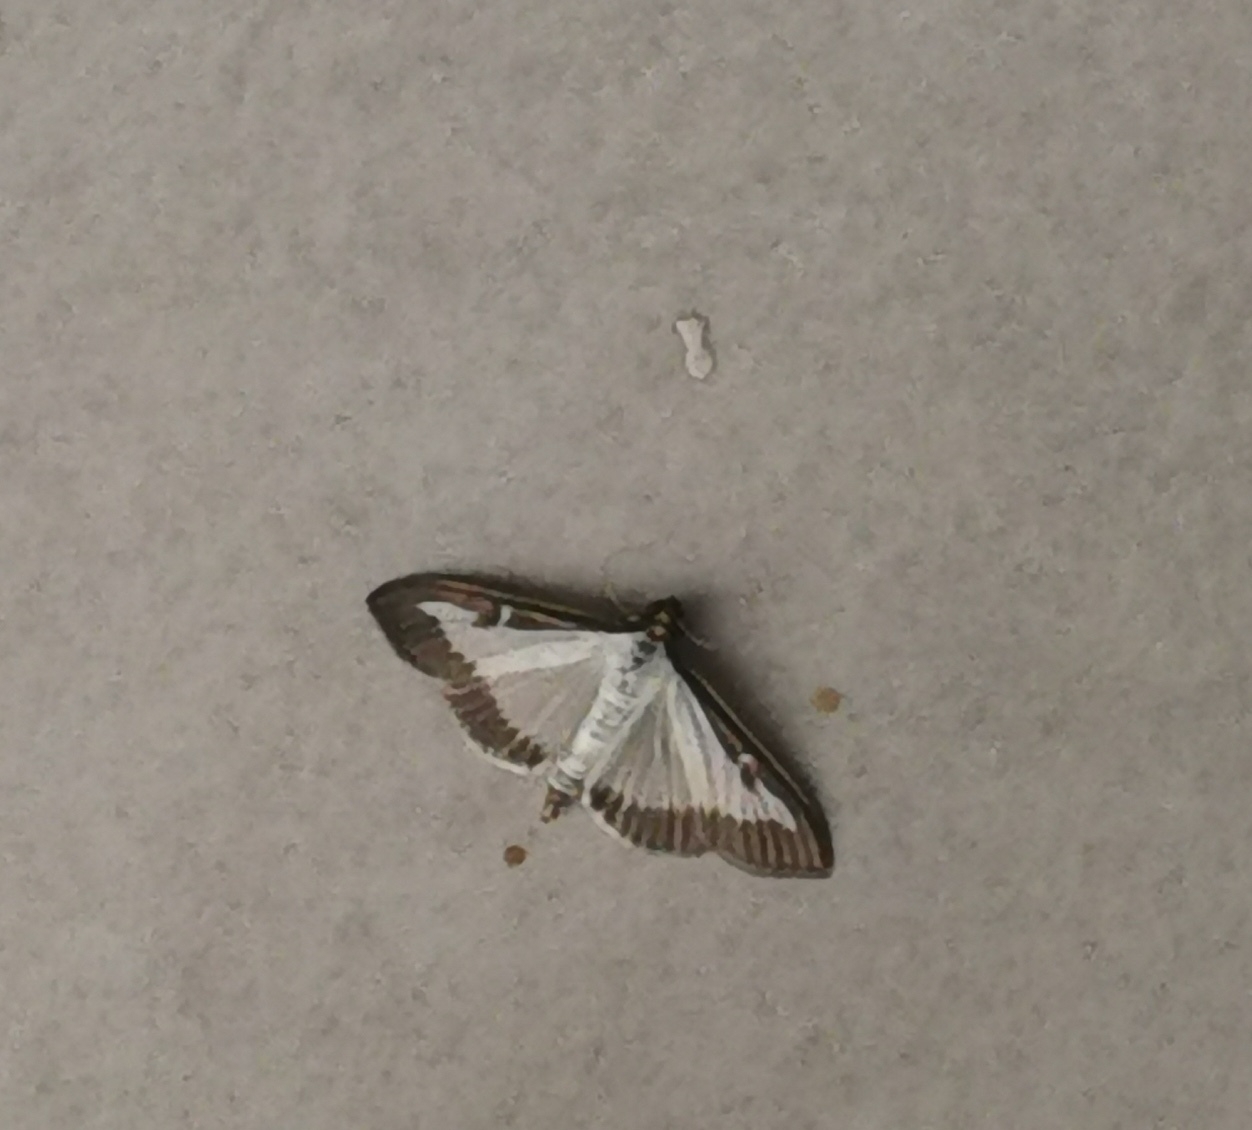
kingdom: Animalia
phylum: Arthropoda
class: Insecta
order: Lepidoptera
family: Crambidae
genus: Cydalima
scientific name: Cydalima perspectalis
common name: Box tree moth
